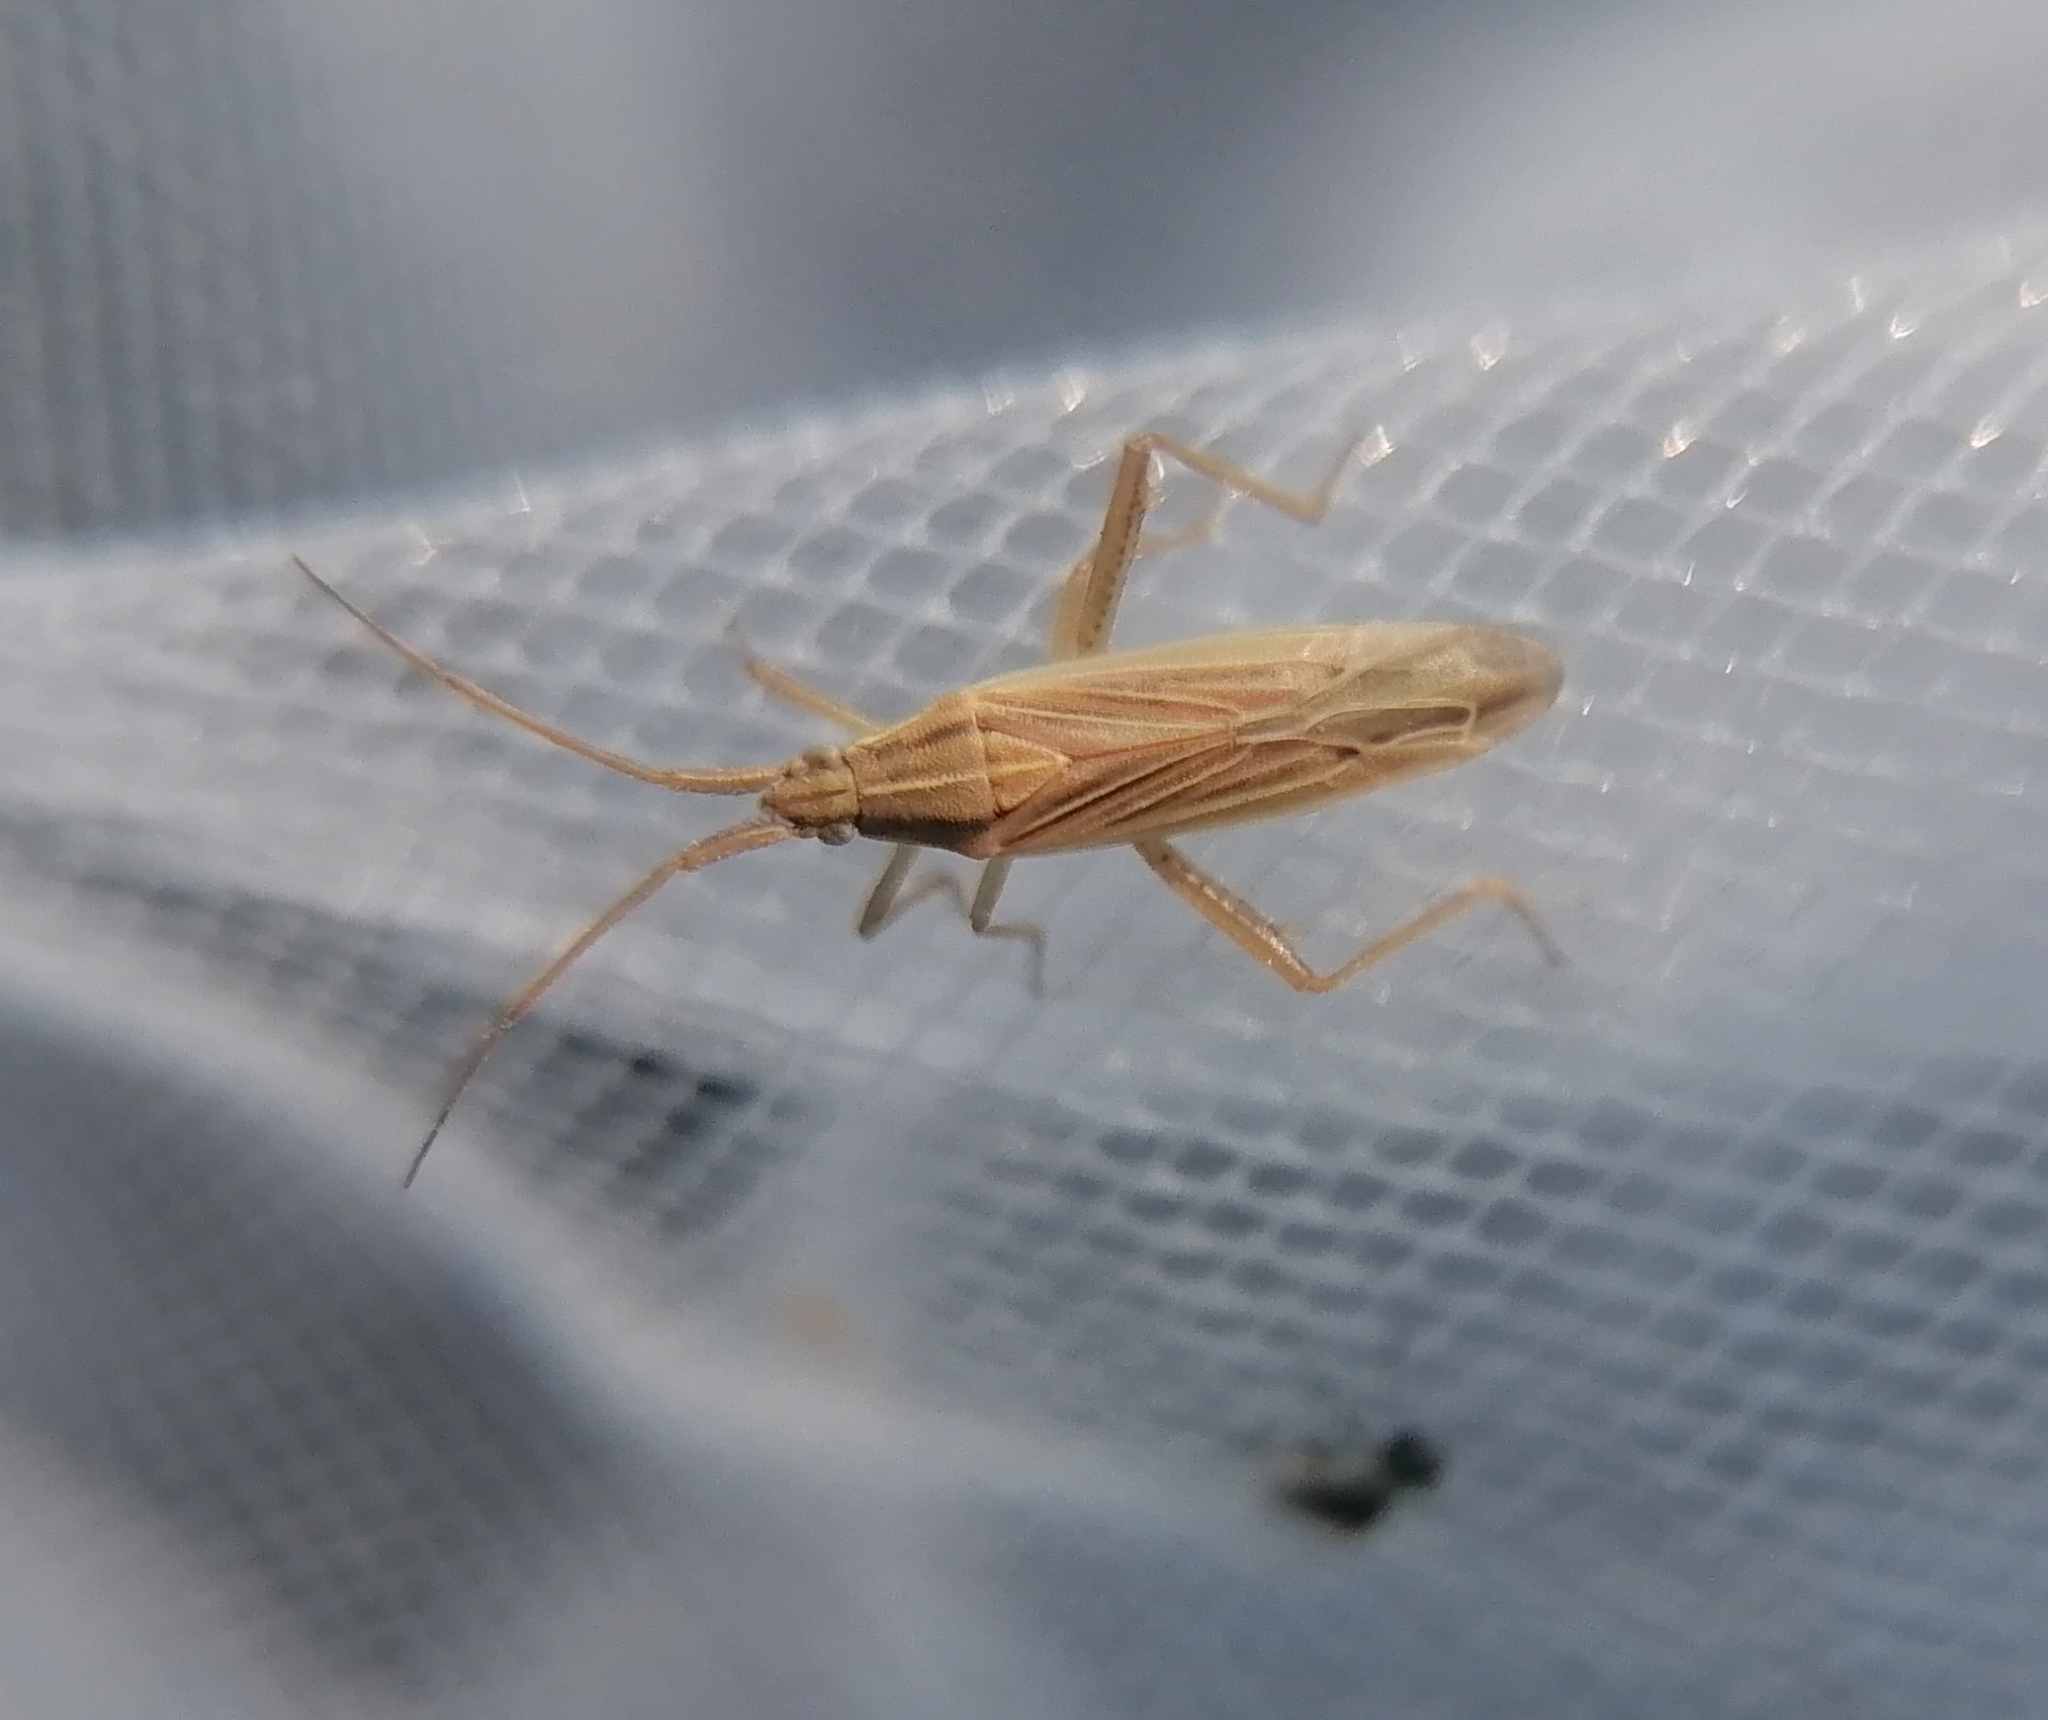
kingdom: Animalia
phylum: Arthropoda
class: Insecta
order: Hemiptera
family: Miridae
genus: Stenodema
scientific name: Stenodema calcarata
